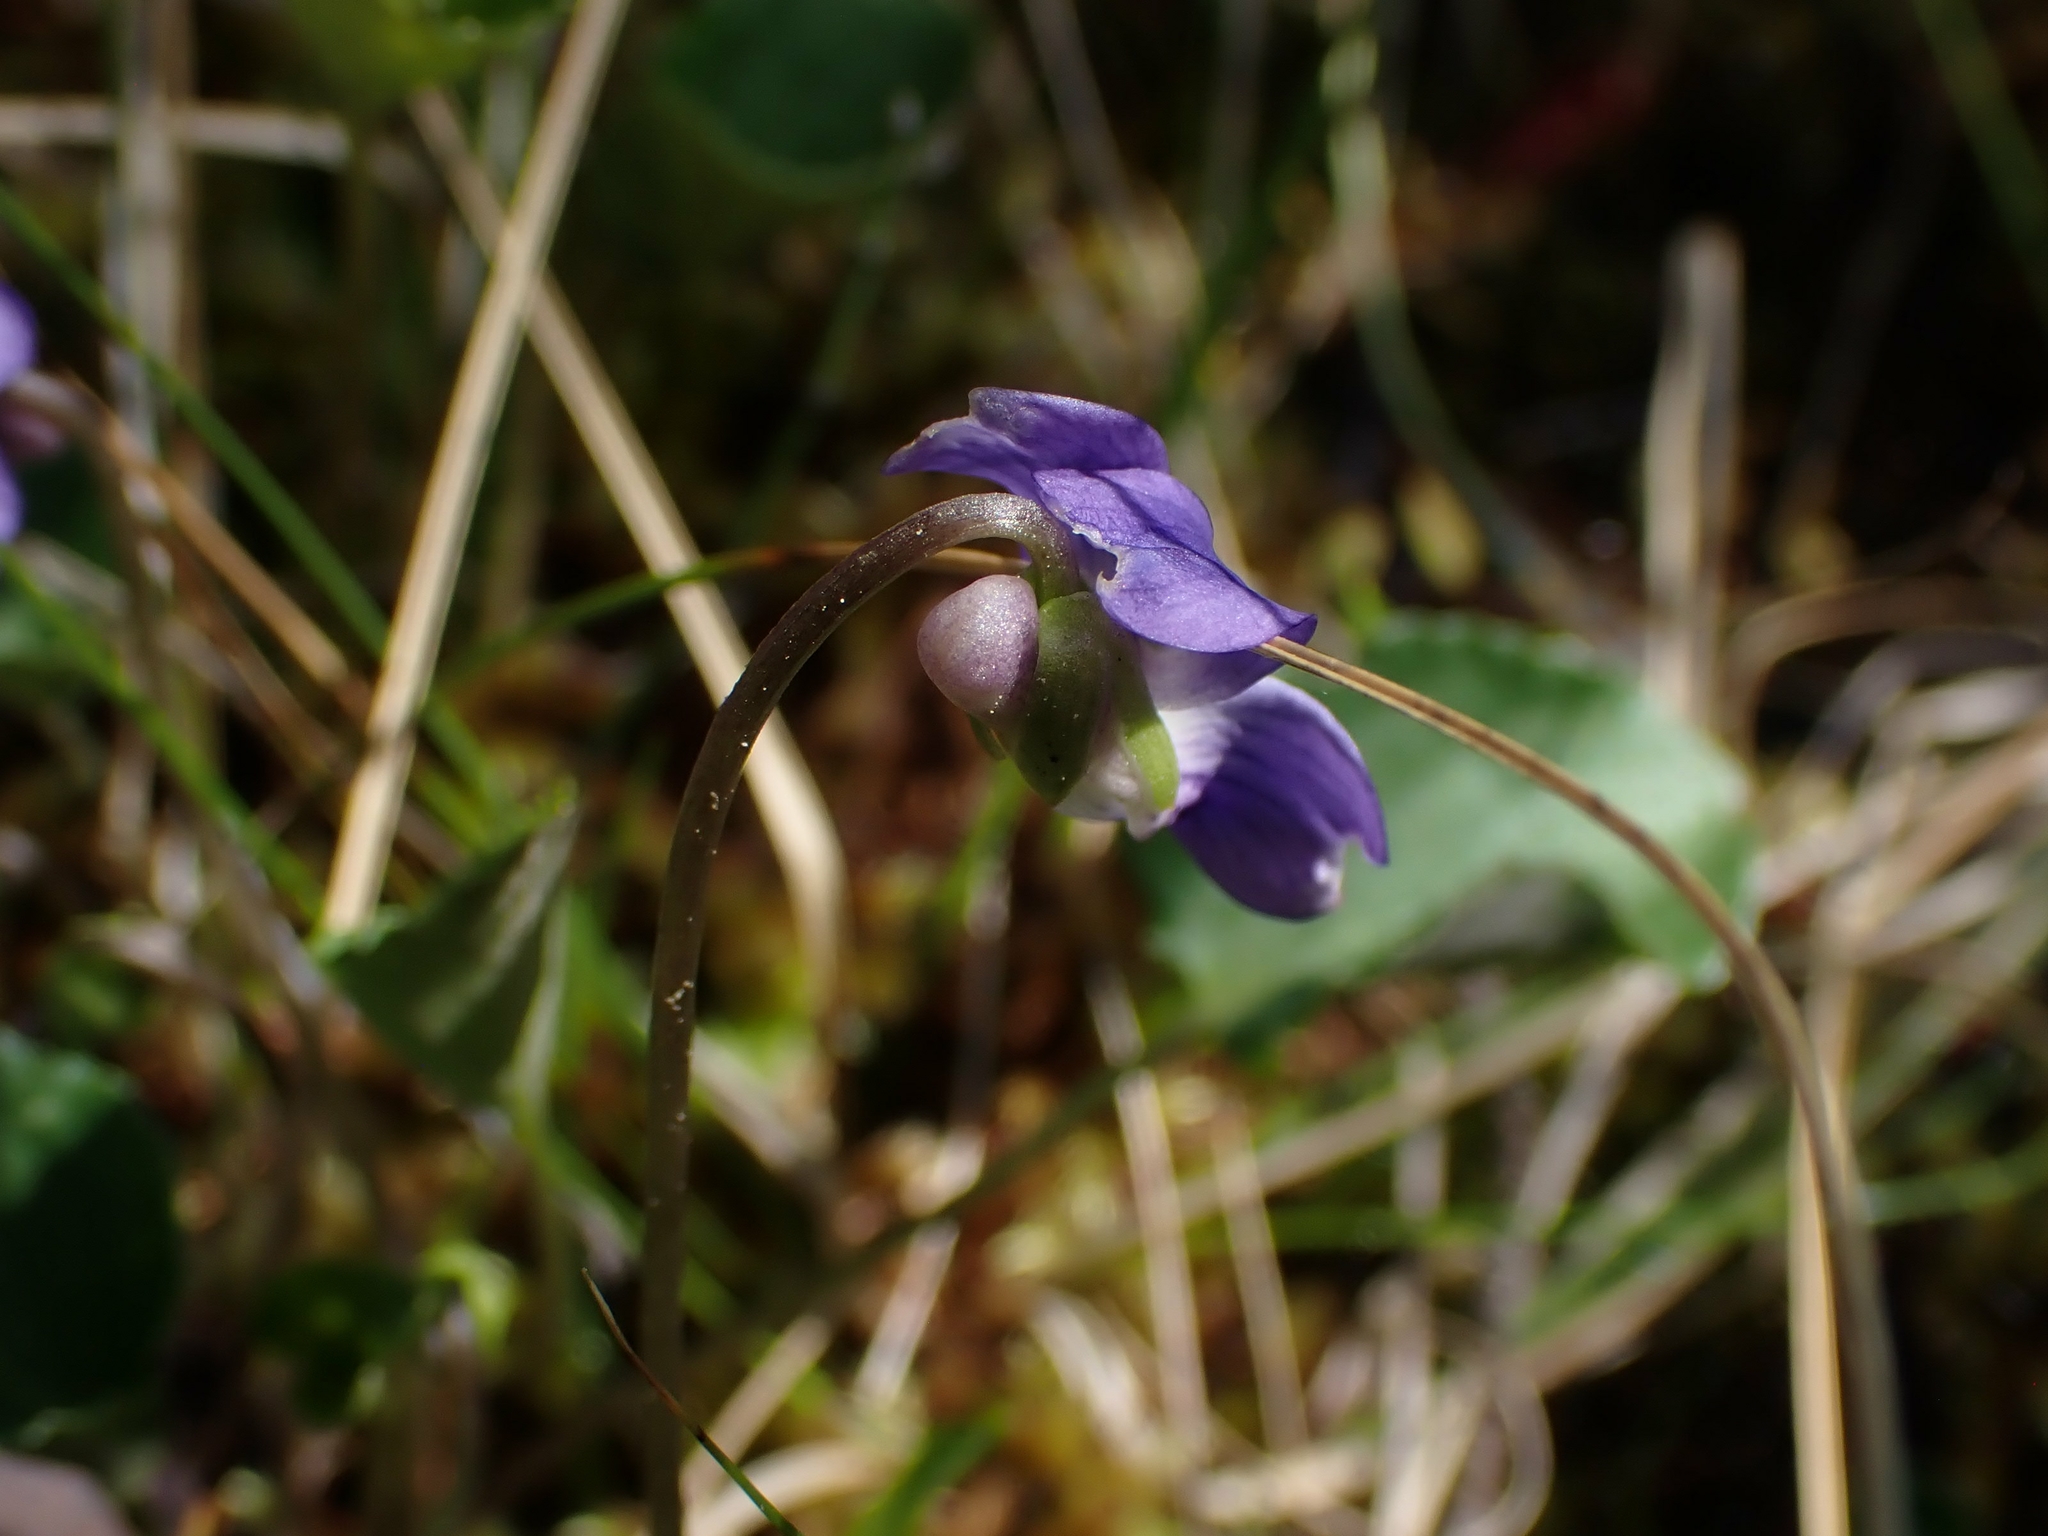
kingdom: Plantae
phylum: Tracheophyta
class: Magnoliopsida
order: Malpighiales
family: Violaceae
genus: Viola
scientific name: Viola nephrophylla
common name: Blue meadow violet
